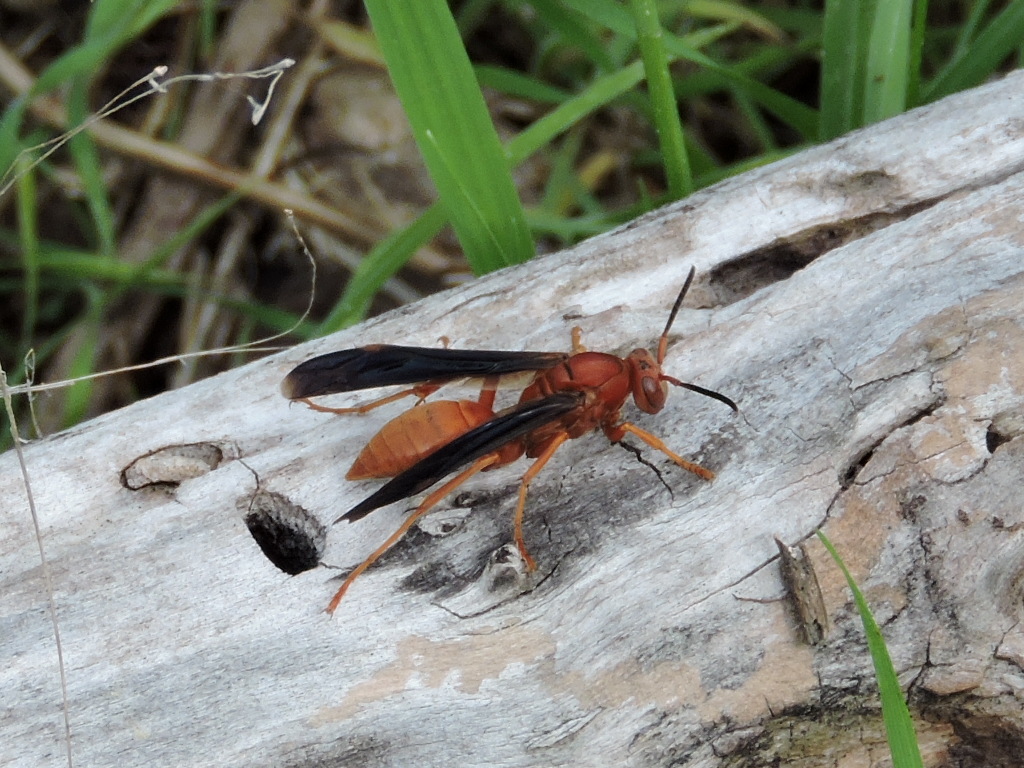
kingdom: Animalia
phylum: Arthropoda
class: Insecta
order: Hymenoptera
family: Vespidae
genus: Fuscopolistes
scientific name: Fuscopolistes
